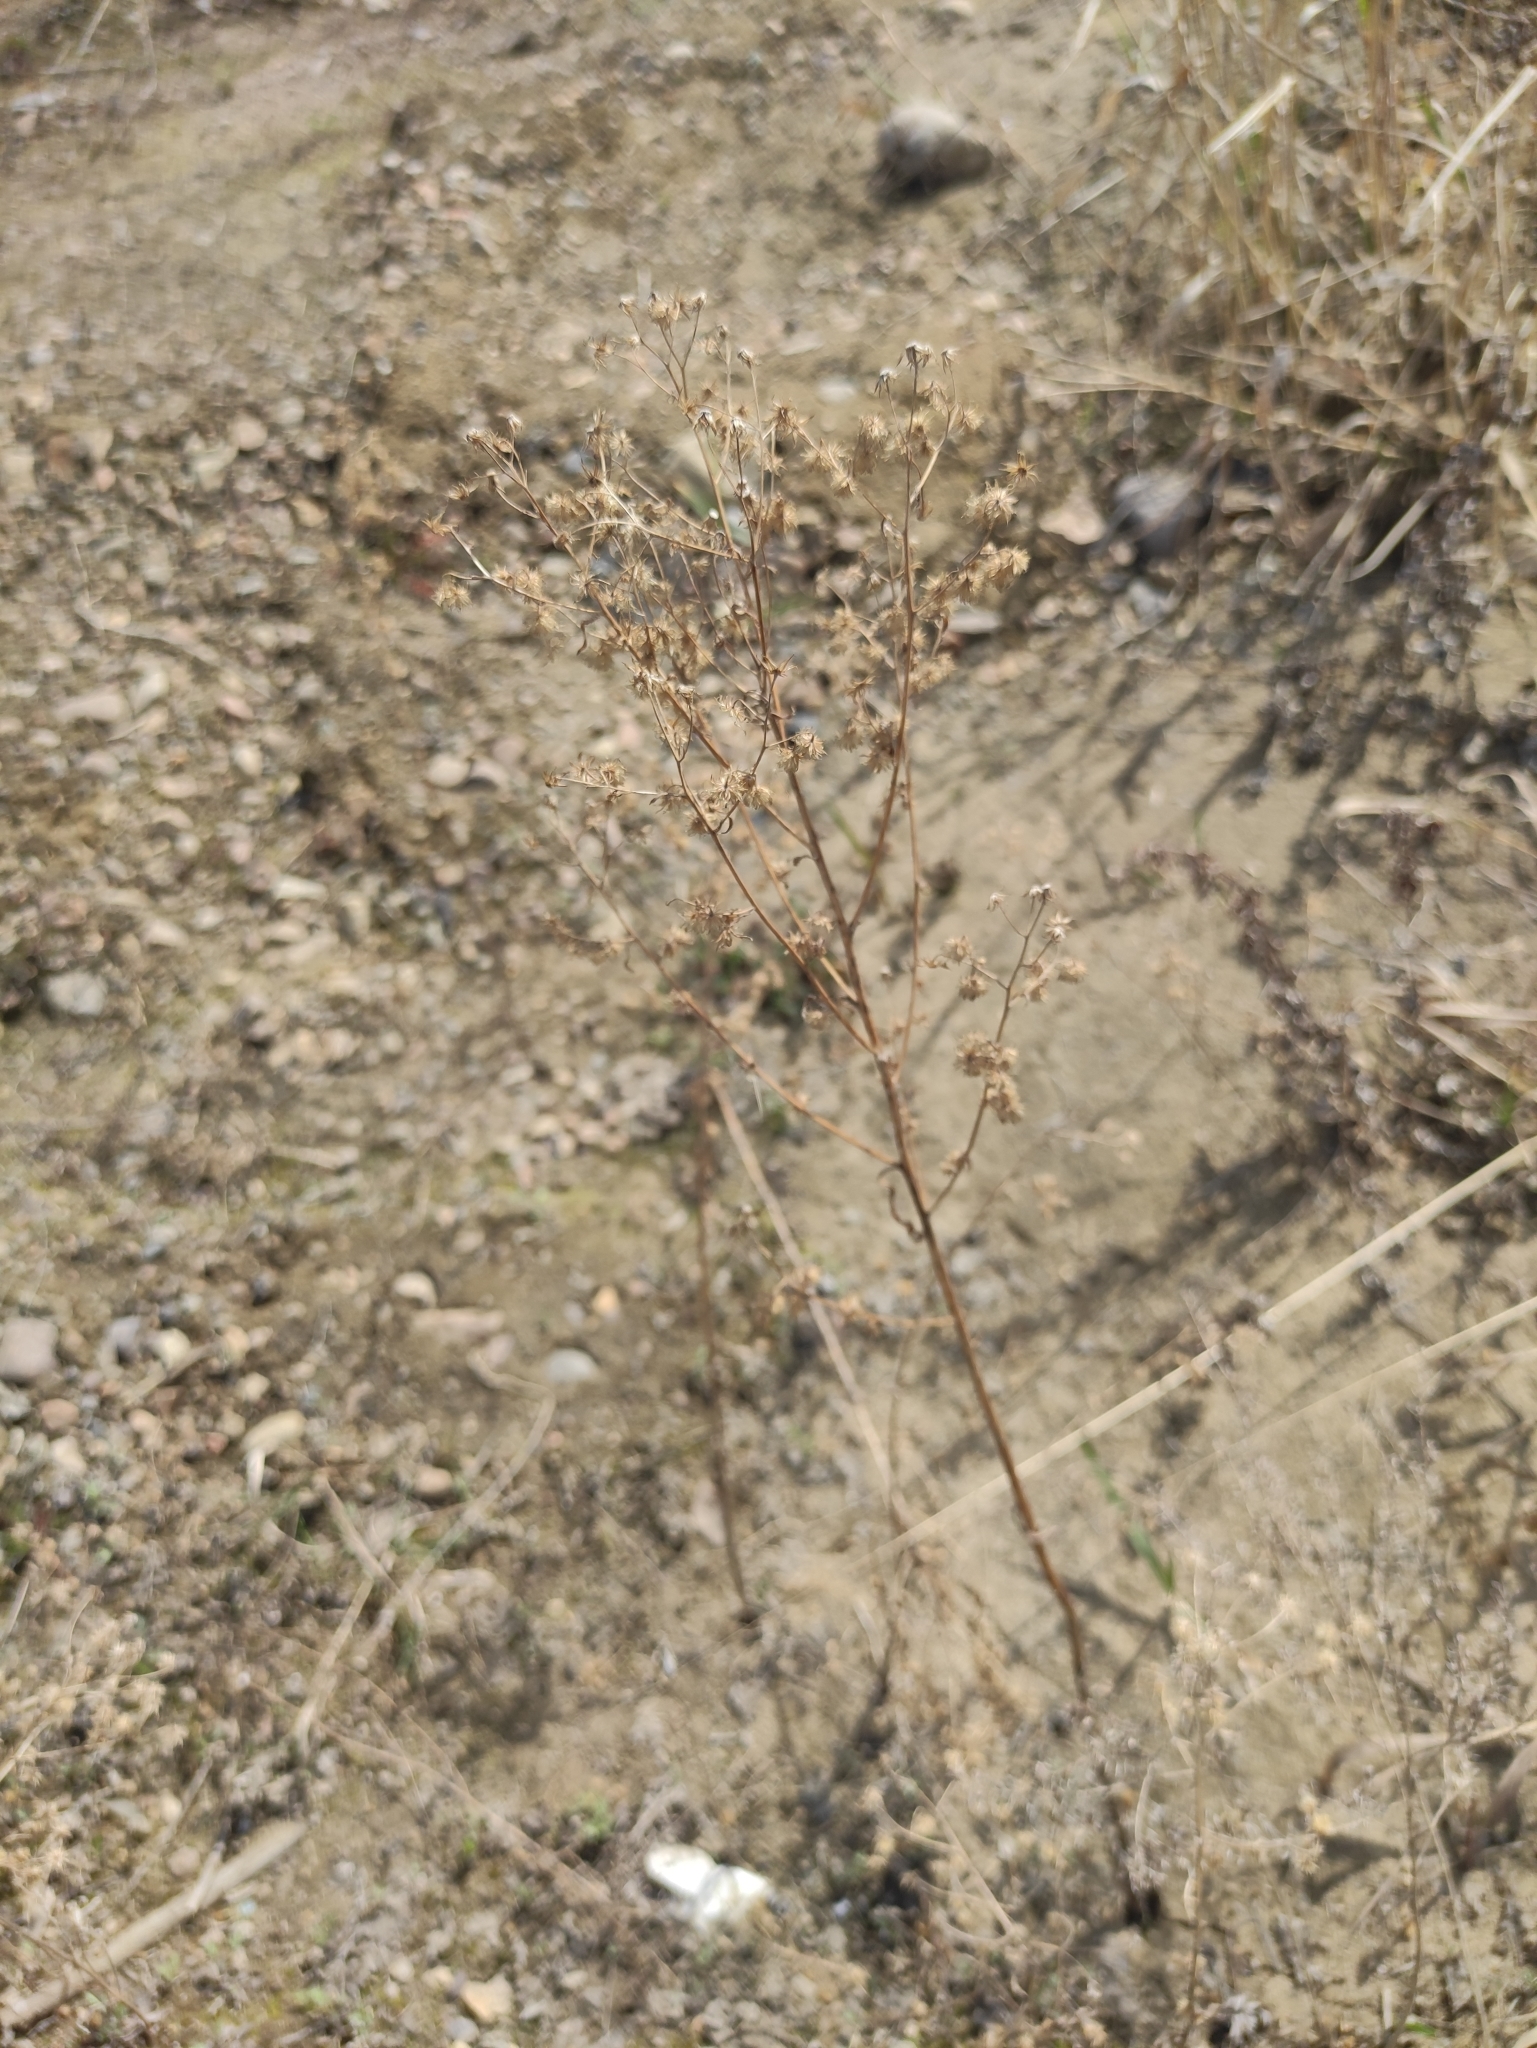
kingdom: Plantae
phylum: Tracheophyta
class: Magnoliopsida
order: Asterales
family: Asteraceae
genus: Erigeron
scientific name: Erigeron canadensis
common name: Canadian fleabane
